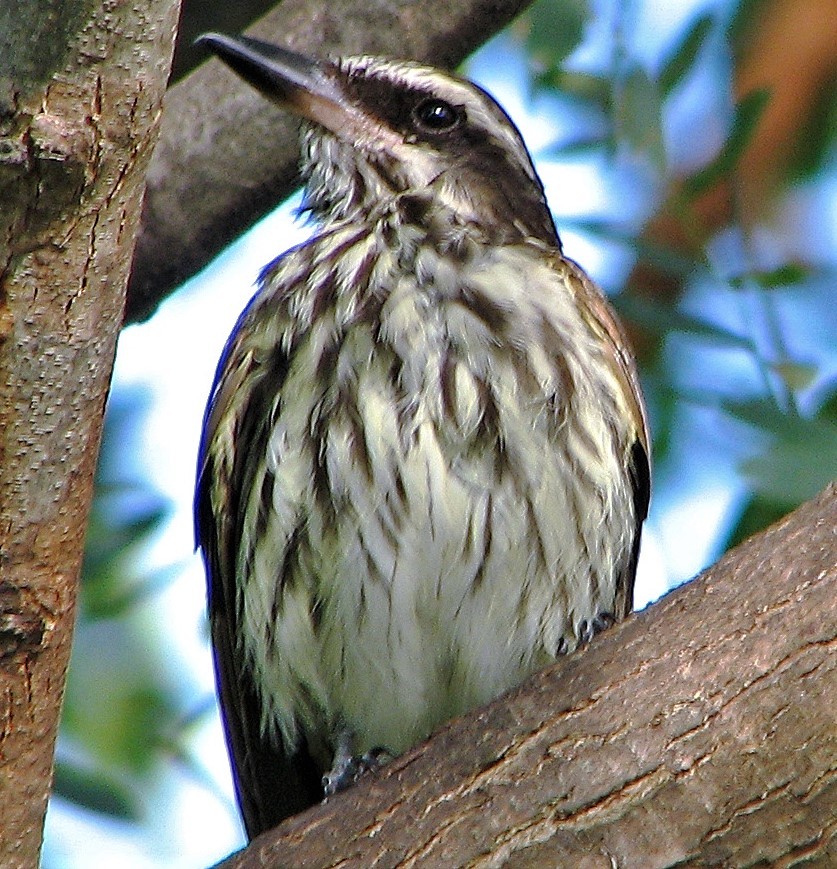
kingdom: Animalia
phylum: Chordata
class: Aves
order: Passeriformes
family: Tyrannidae
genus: Myiodynastes
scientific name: Myiodynastes maculatus
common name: Streaked flycatcher
